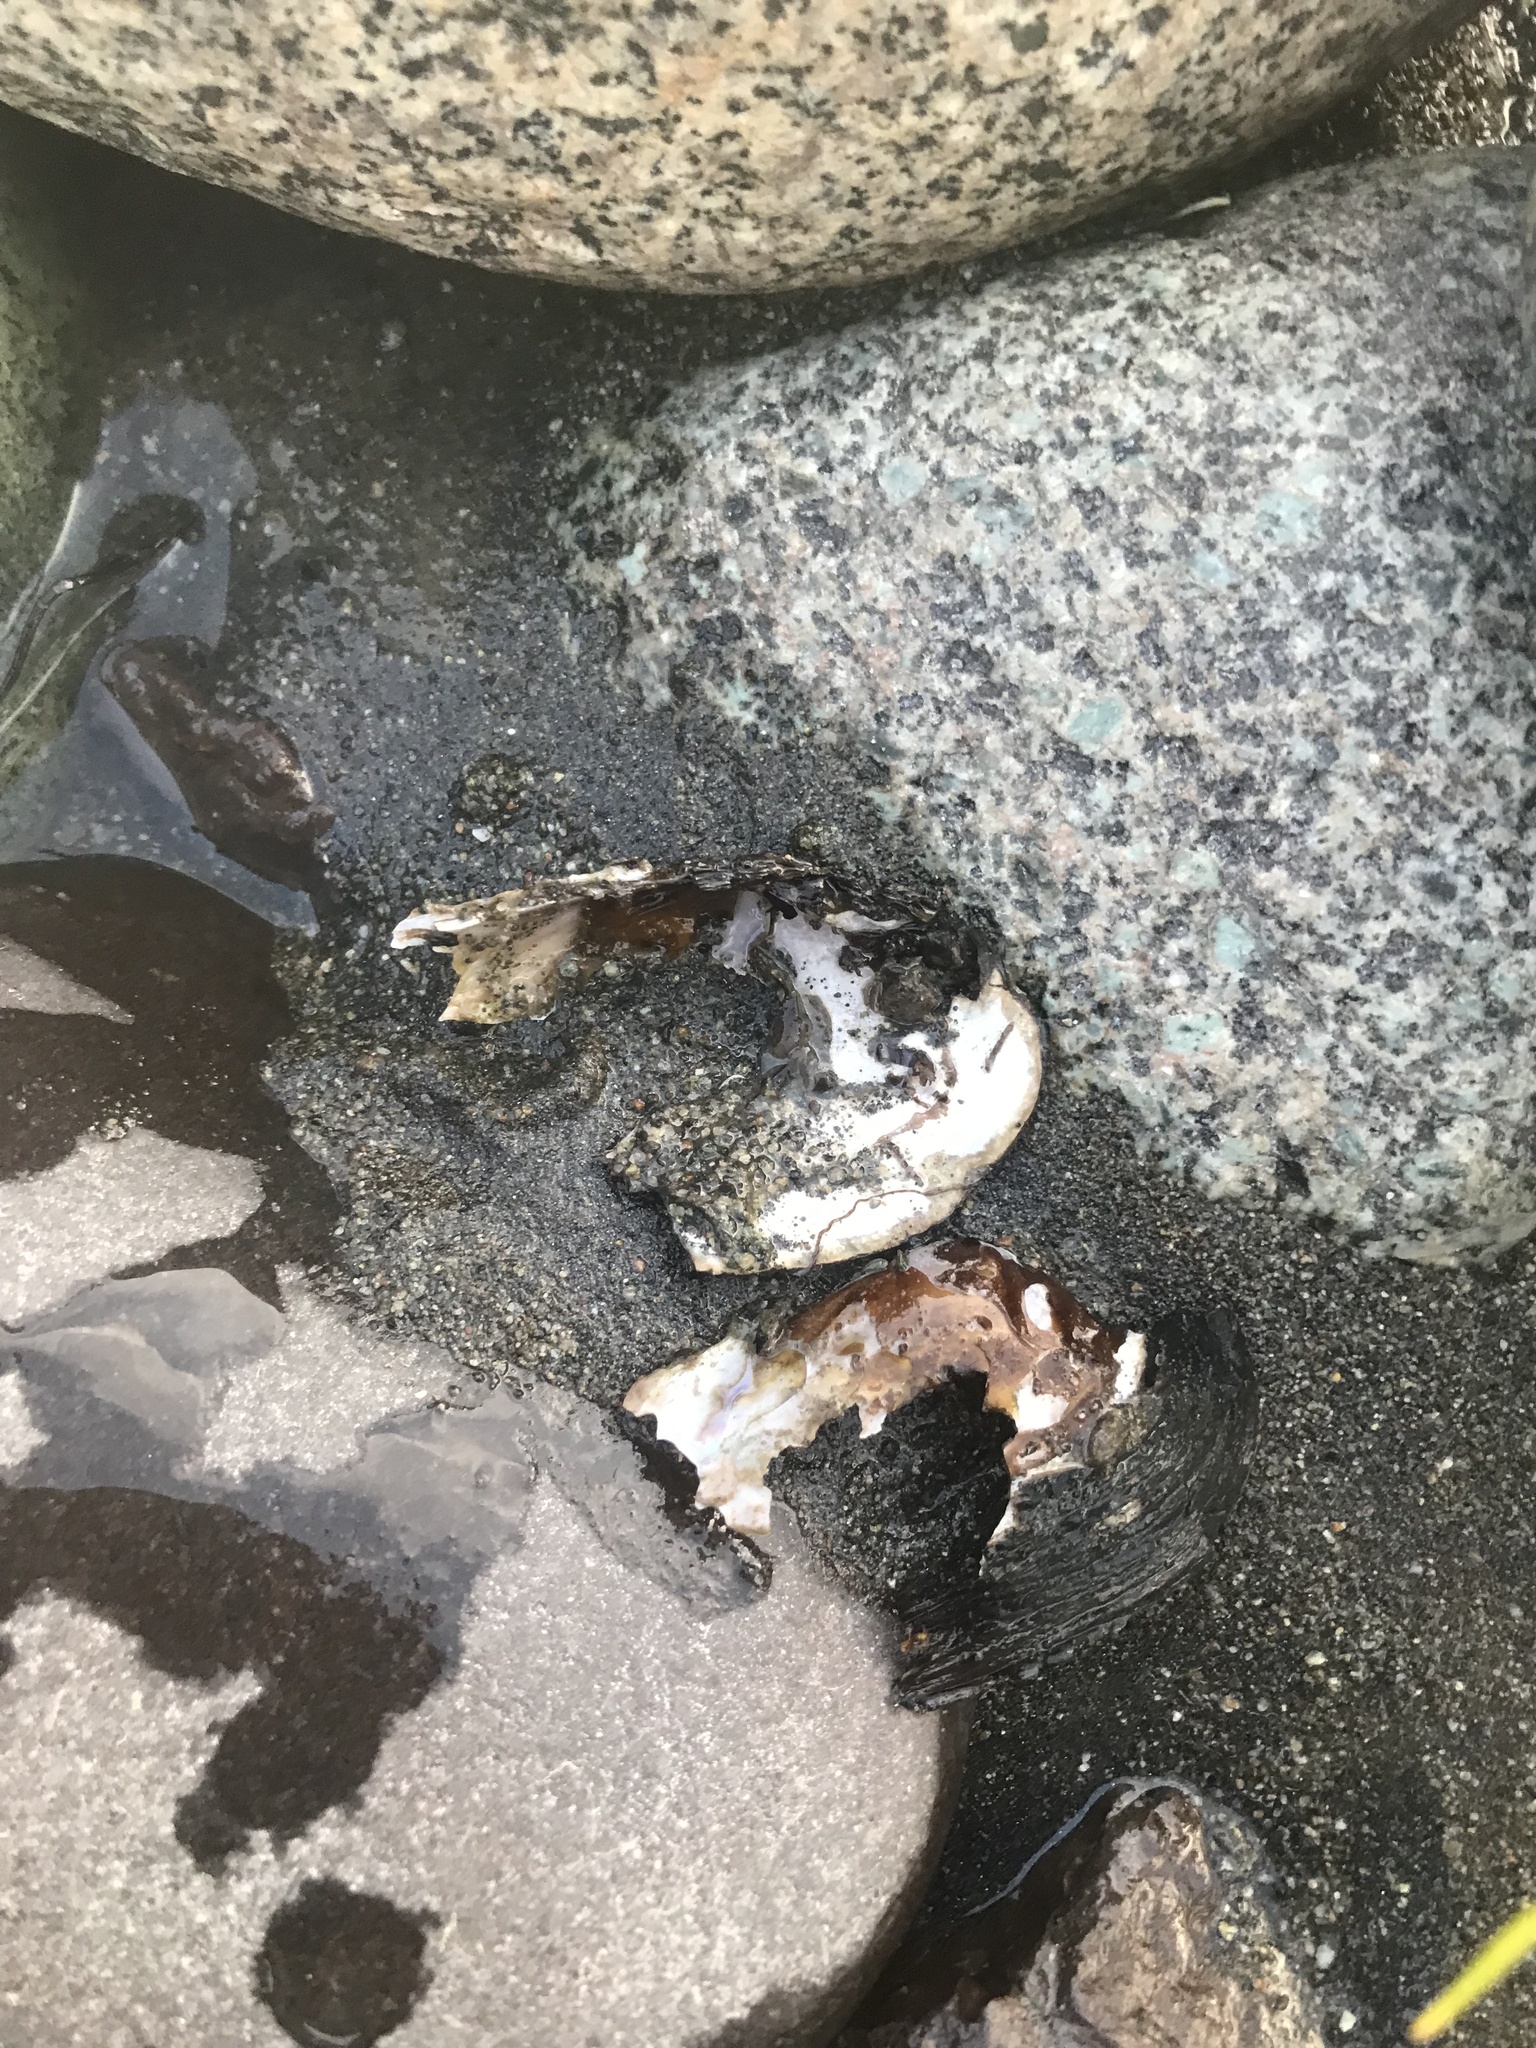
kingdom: Animalia
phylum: Mollusca
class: Bivalvia
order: Unionida
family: Margaritiferidae
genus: Margaritifera
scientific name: Margaritifera falcata
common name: Western pearlshell
